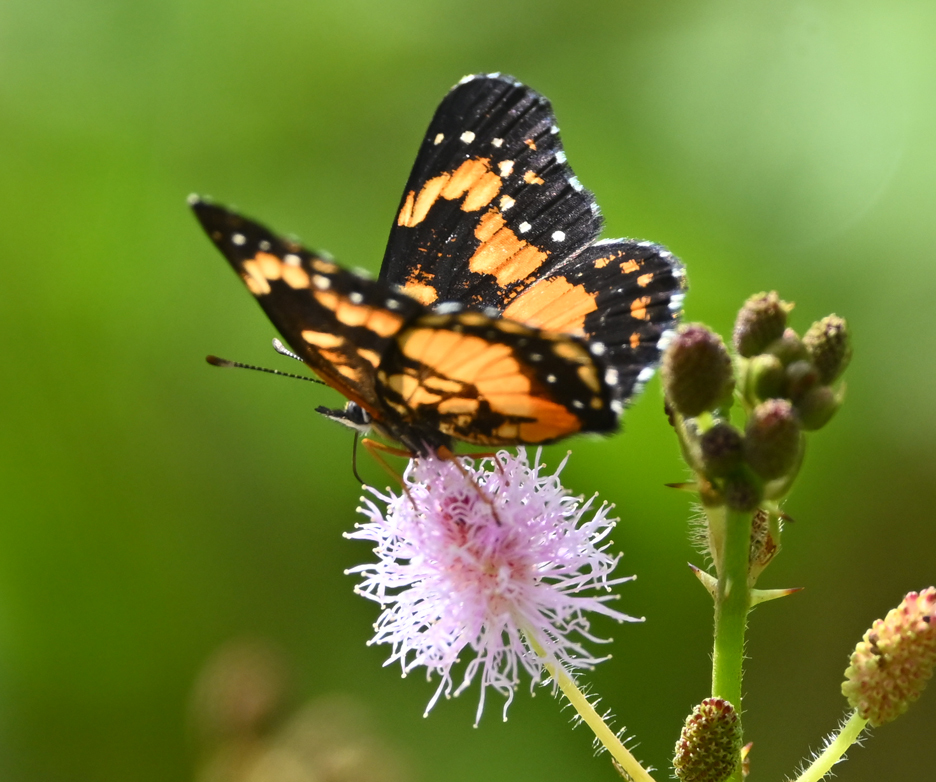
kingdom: Animalia
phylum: Arthropoda
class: Insecta
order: Lepidoptera
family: Nymphalidae
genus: Chlosyne
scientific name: Chlosyne lacinia
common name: Bordered patch
